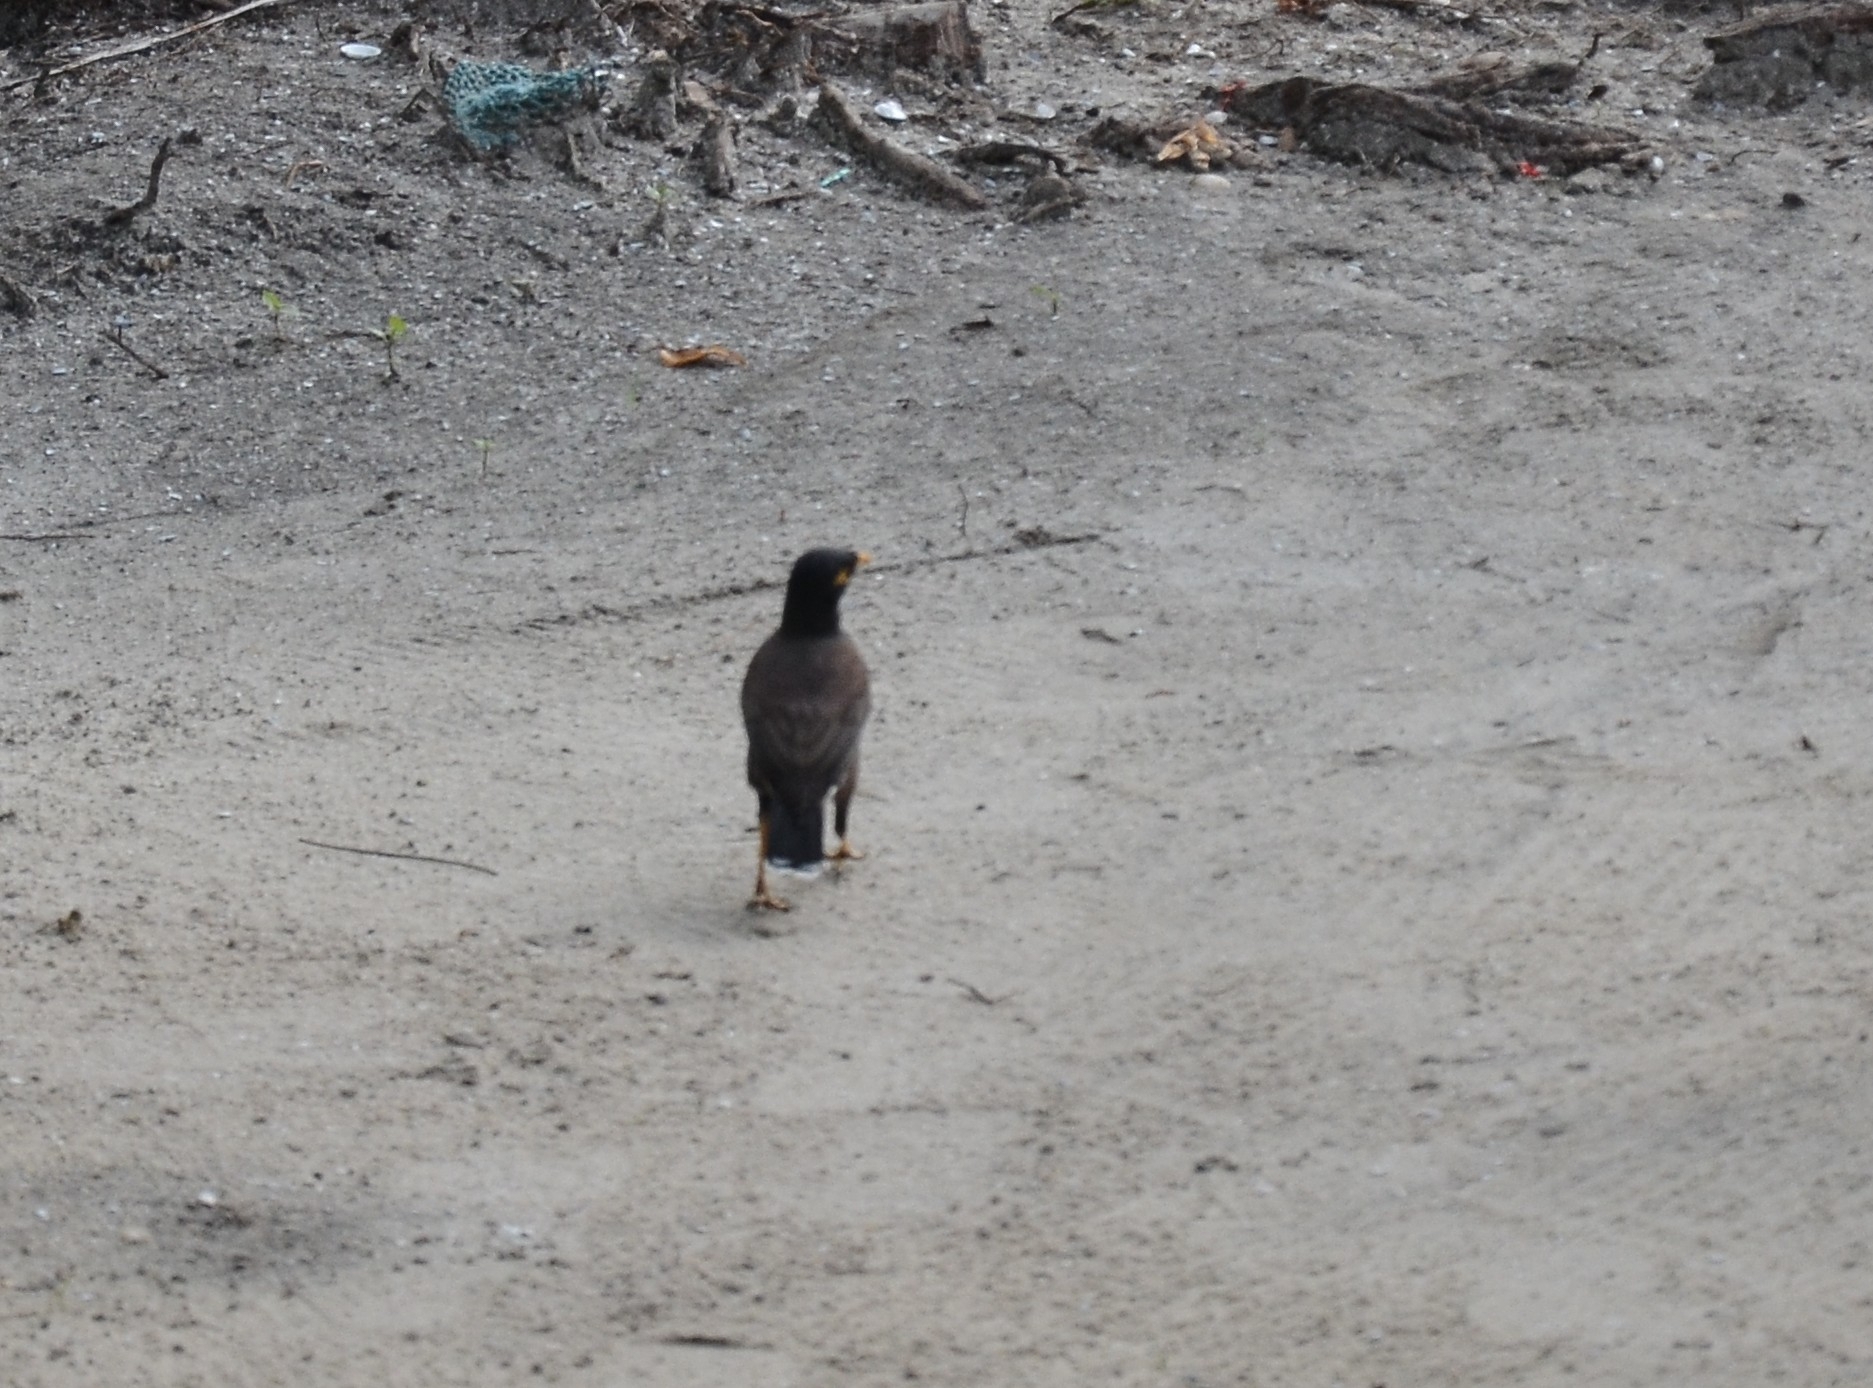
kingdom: Animalia
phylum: Chordata
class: Aves
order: Passeriformes
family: Sturnidae
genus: Acridotheres
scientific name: Acridotheres tristis
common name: Common myna
